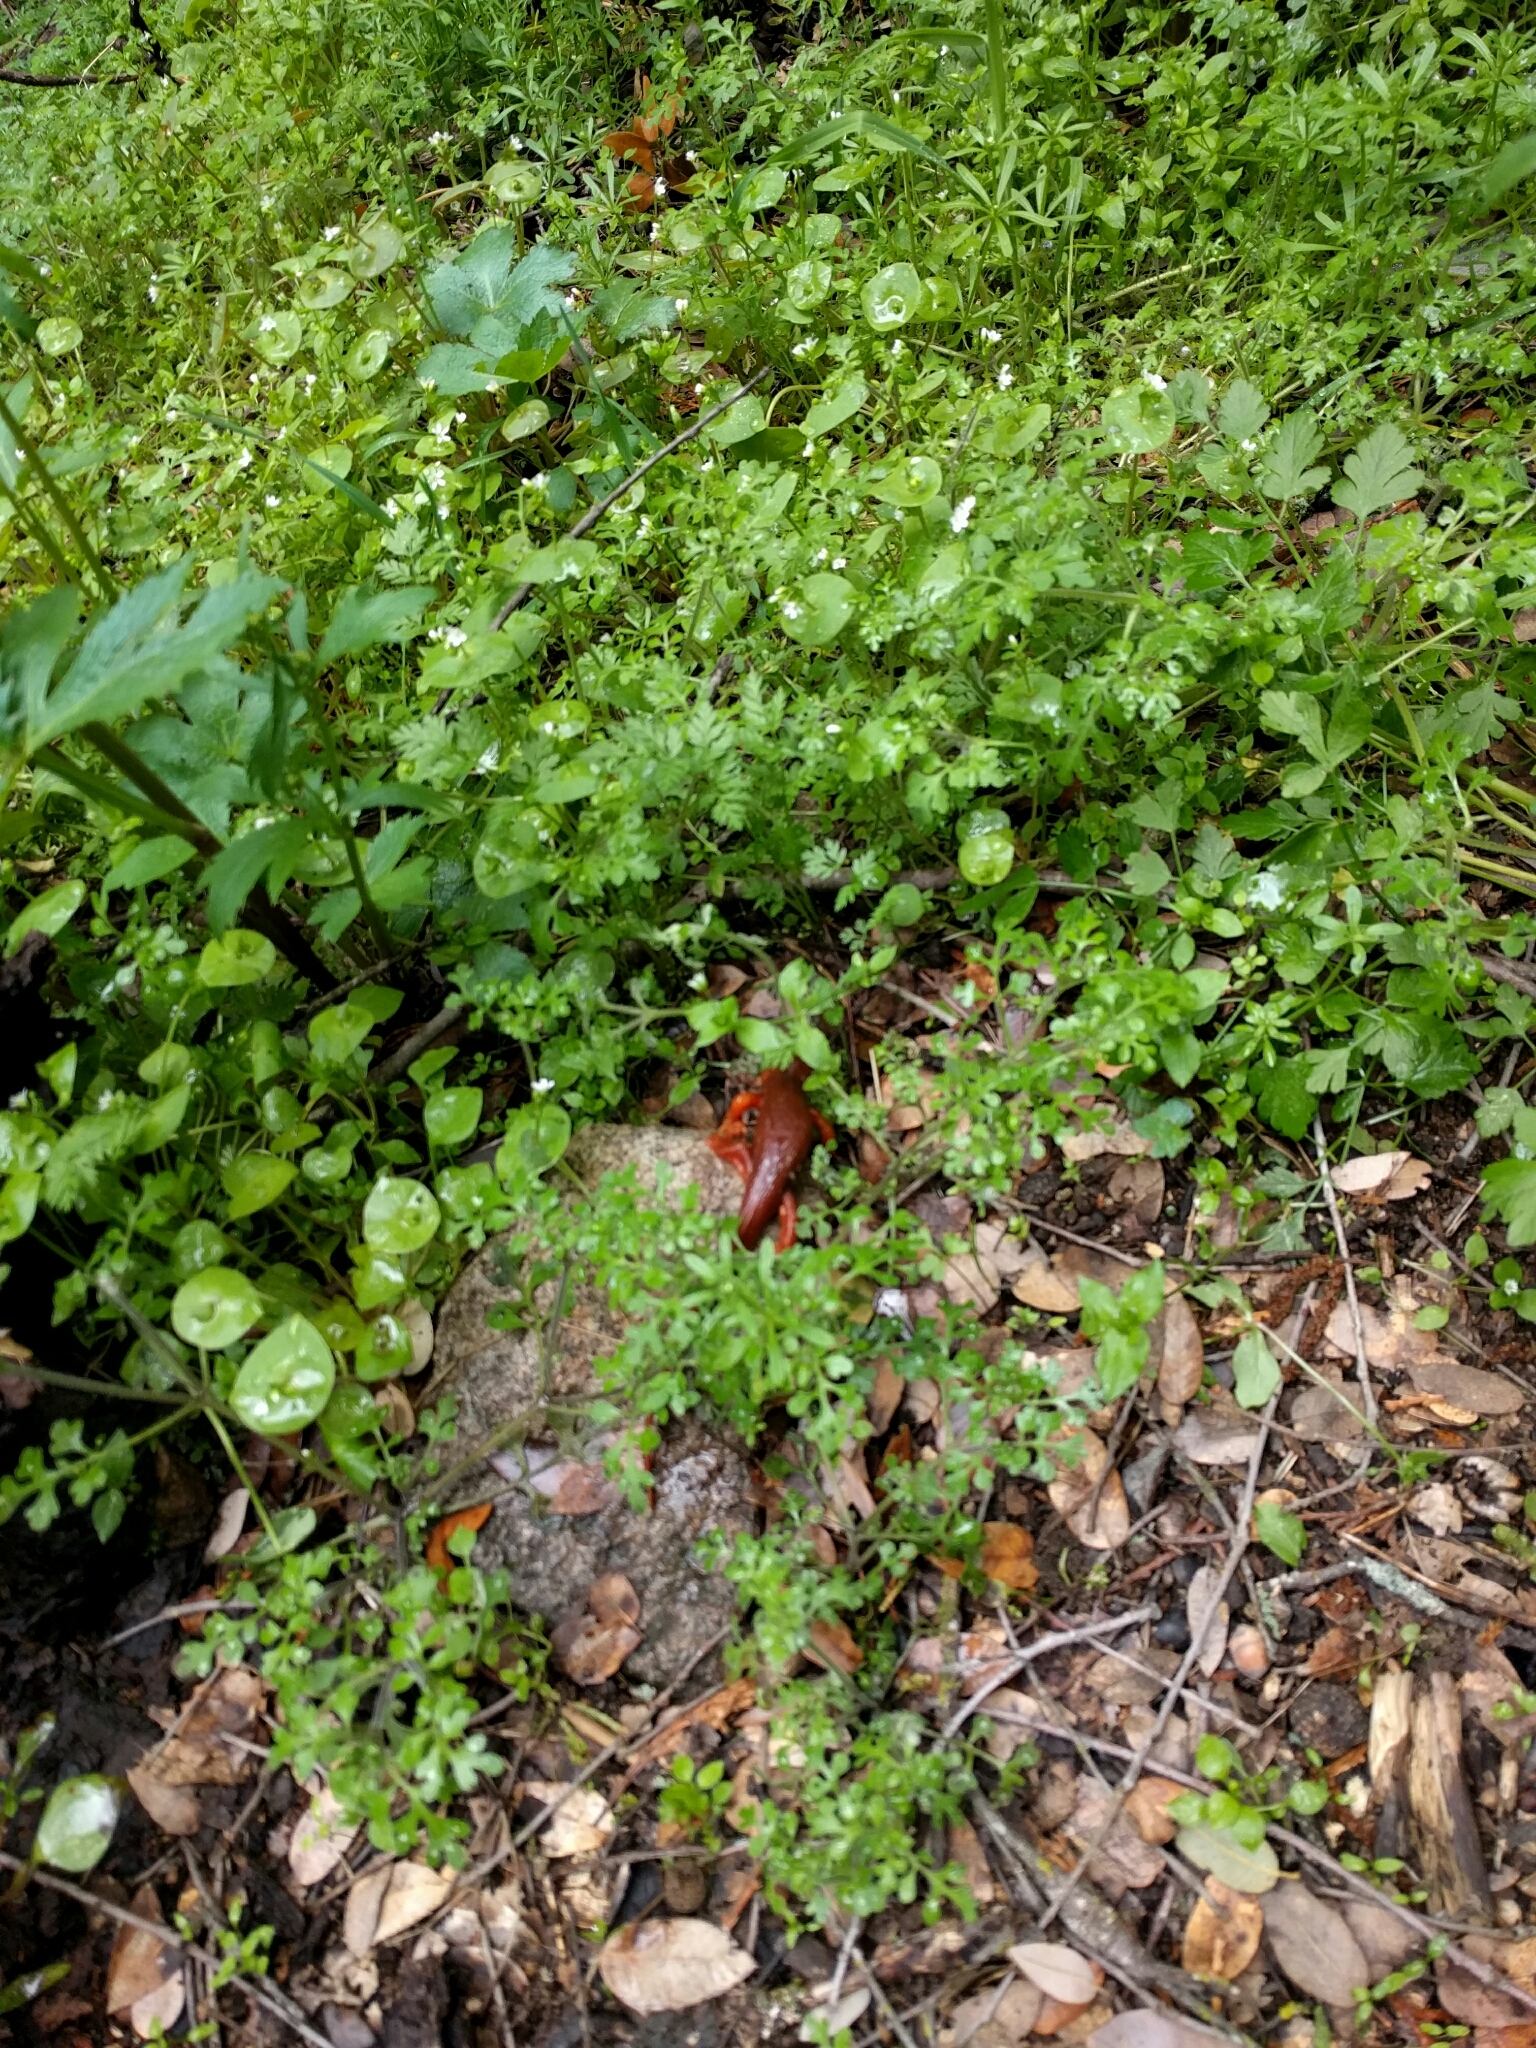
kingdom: Animalia
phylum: Chordata
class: Amphibia
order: Caudata
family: Salamandridae
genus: Taricha
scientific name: Taricha torosa
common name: California newt
